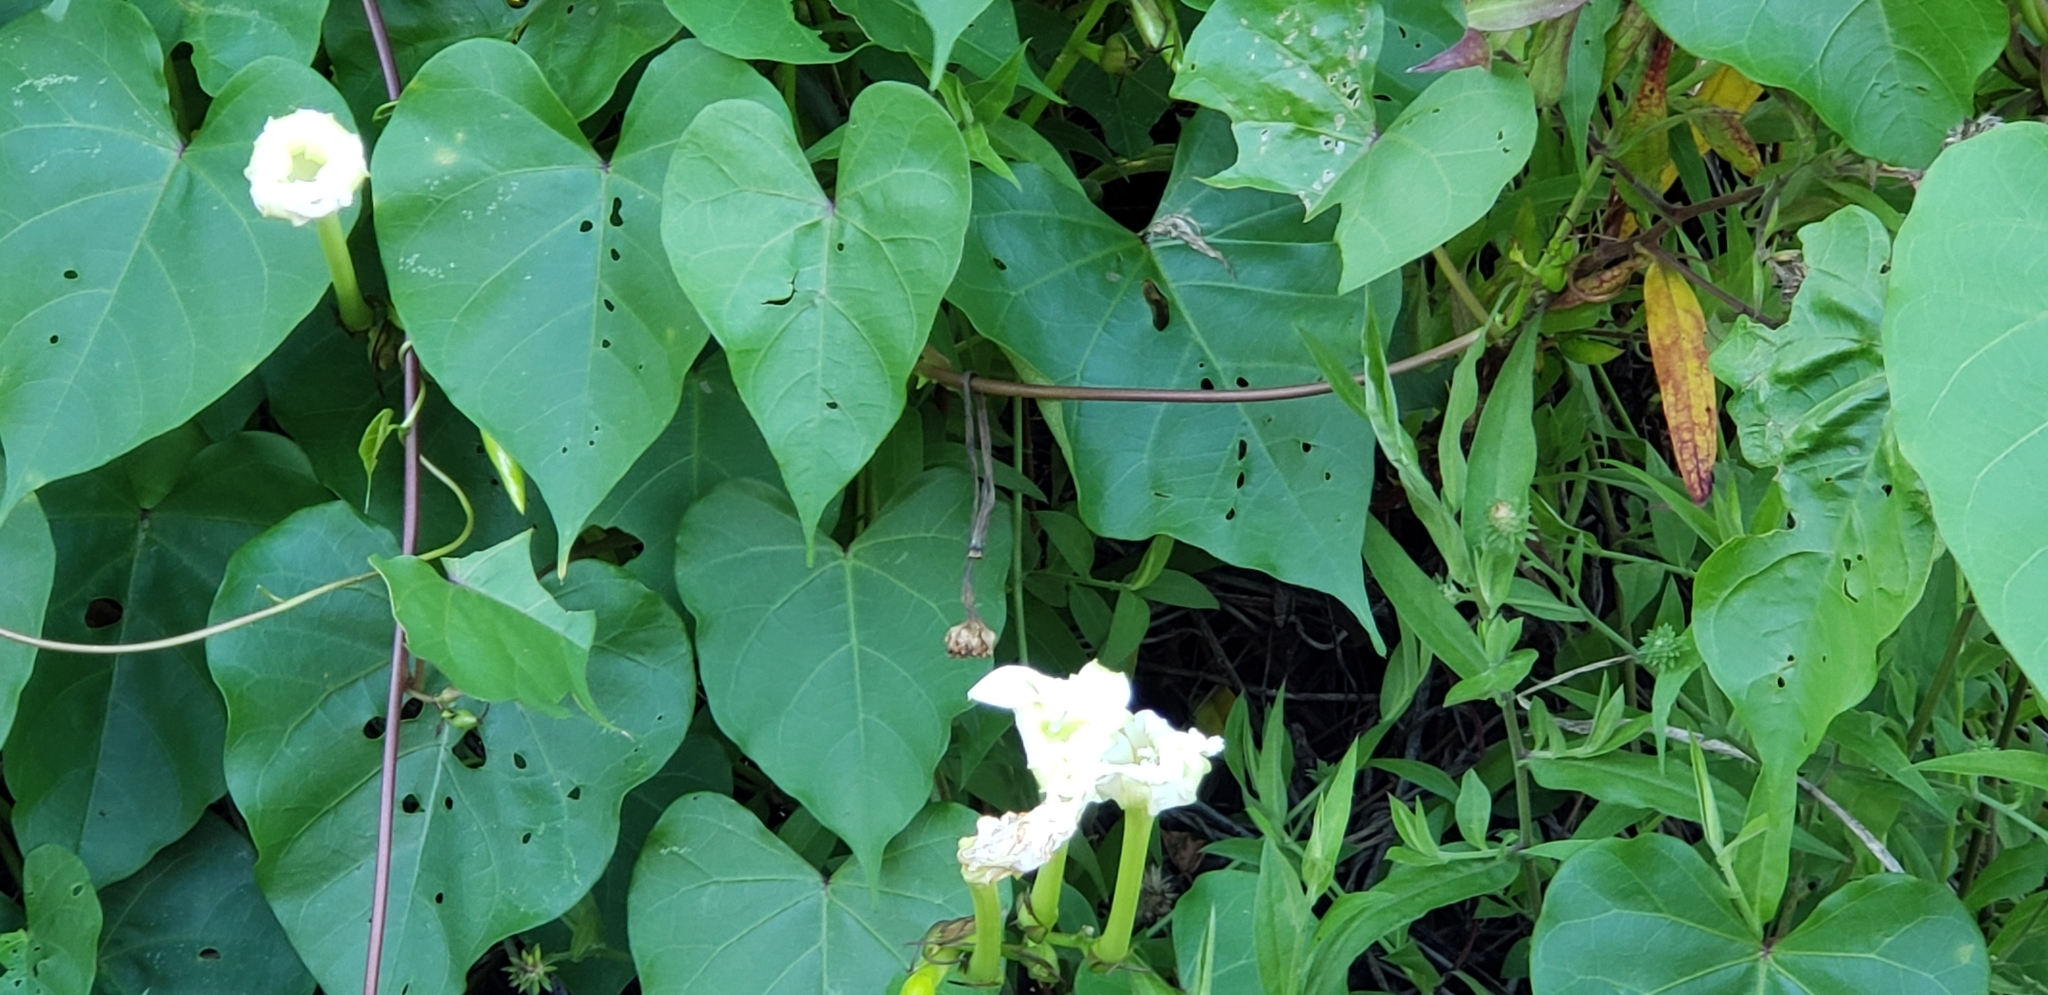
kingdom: Plantae
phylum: Tracheophyta
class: Magnoliopsida
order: Solanales
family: Convolvulaceae
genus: Ipomoea
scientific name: Ipomoea alba
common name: Moonflower
